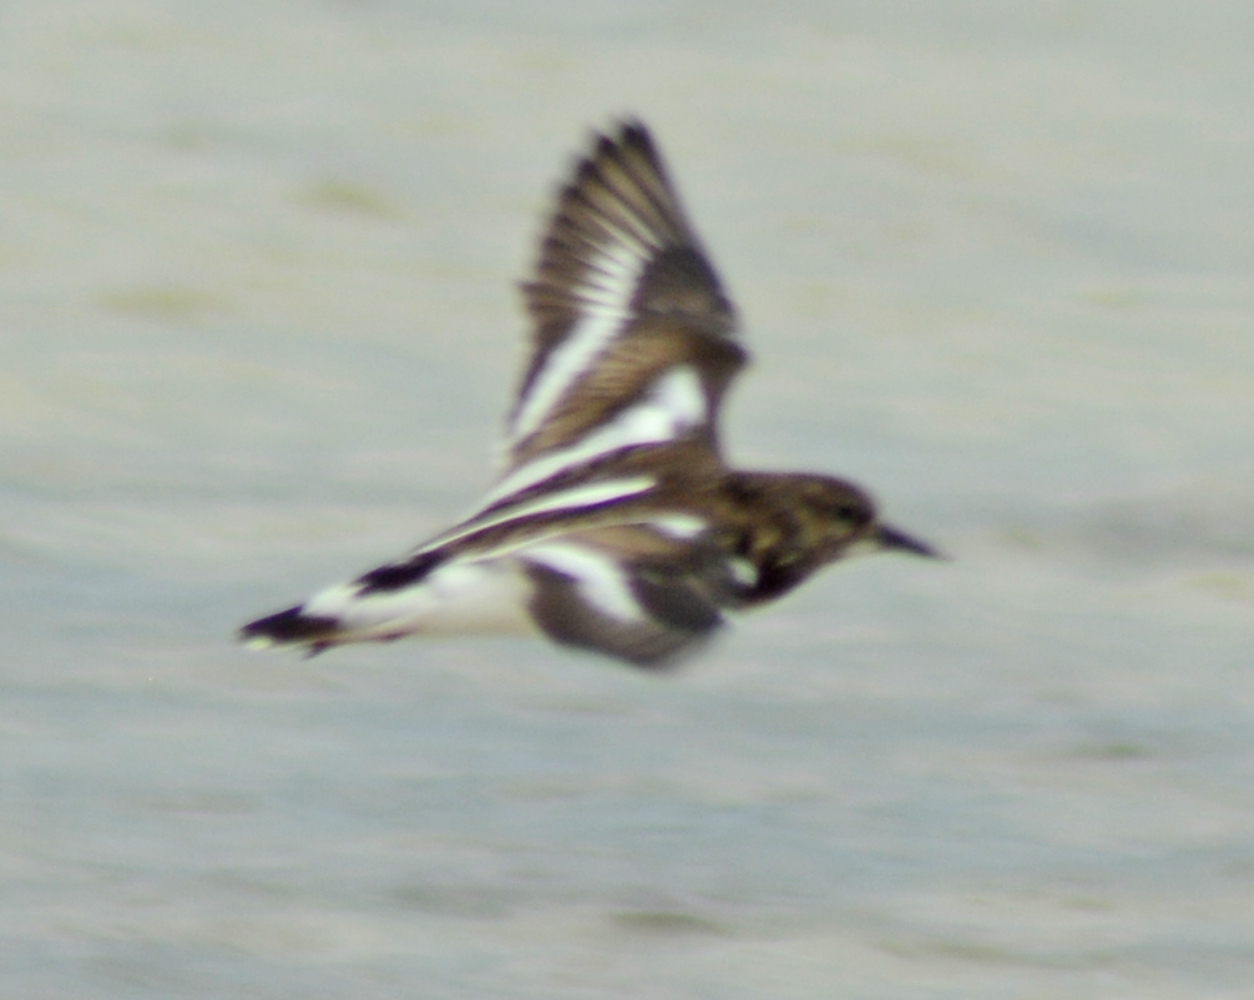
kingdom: Animalia
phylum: Chordata
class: Aves
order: Charadriiformes
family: Scolopacidae
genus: Arenaria
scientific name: Arenaria interpres
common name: Ruddy turnstone
